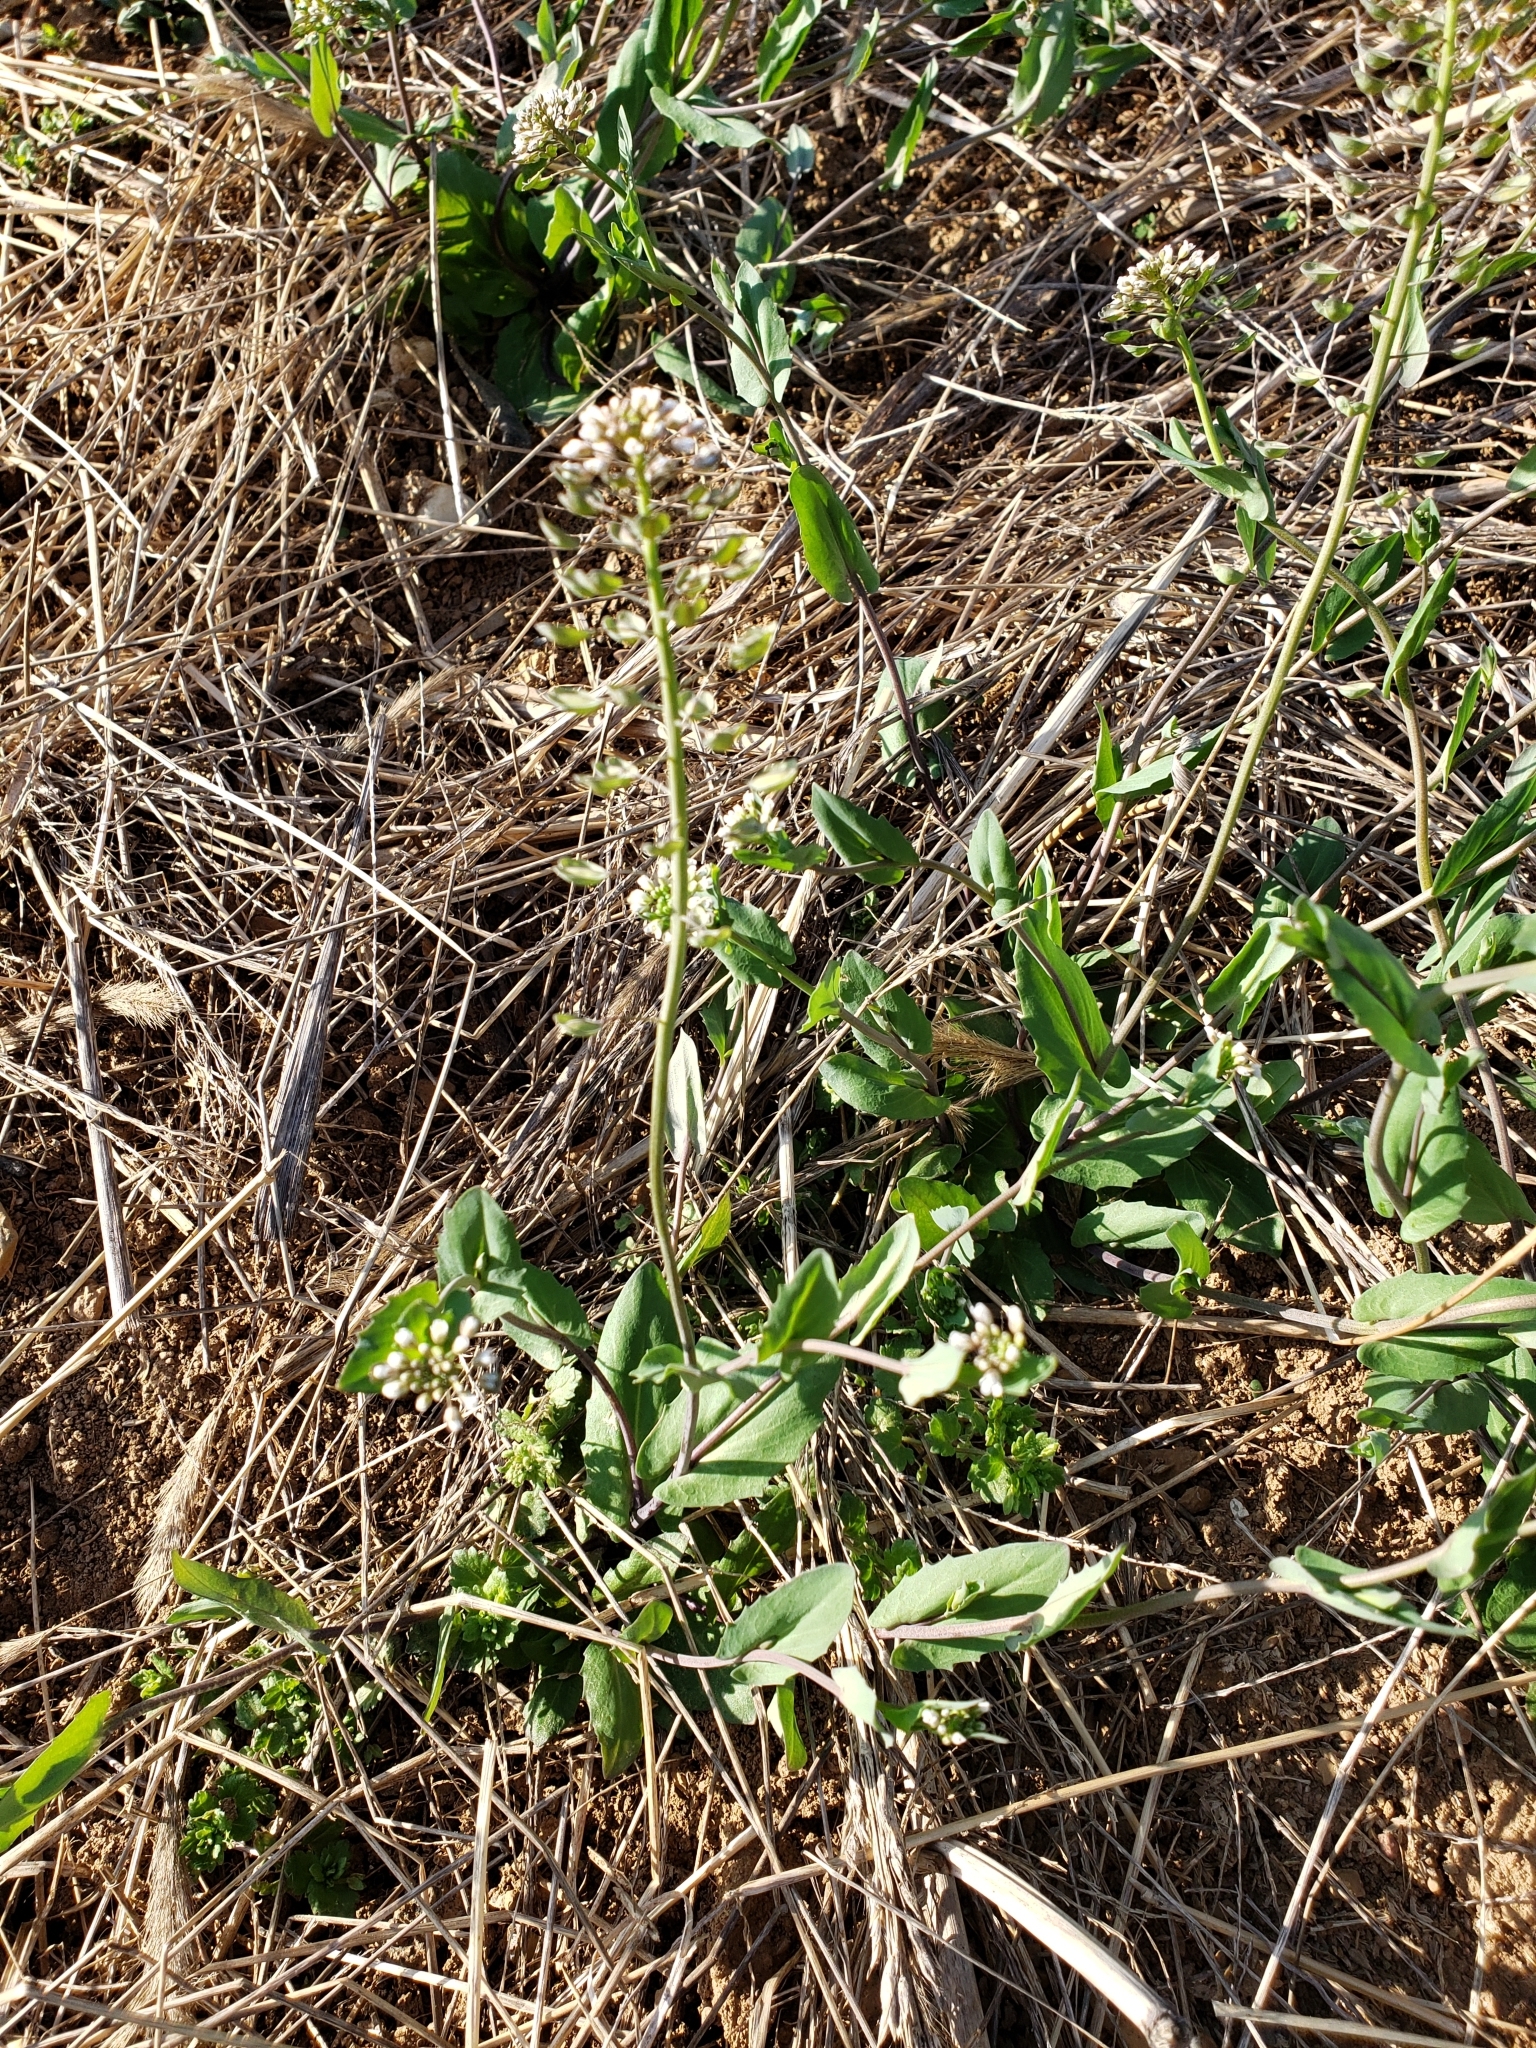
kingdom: Plantae
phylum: Tracheophyta
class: Magnoliopsida
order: Brassicales
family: Brassicaceae
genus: Noccaea
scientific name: Noccaea perfoliata
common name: Perfoliate pennycress
